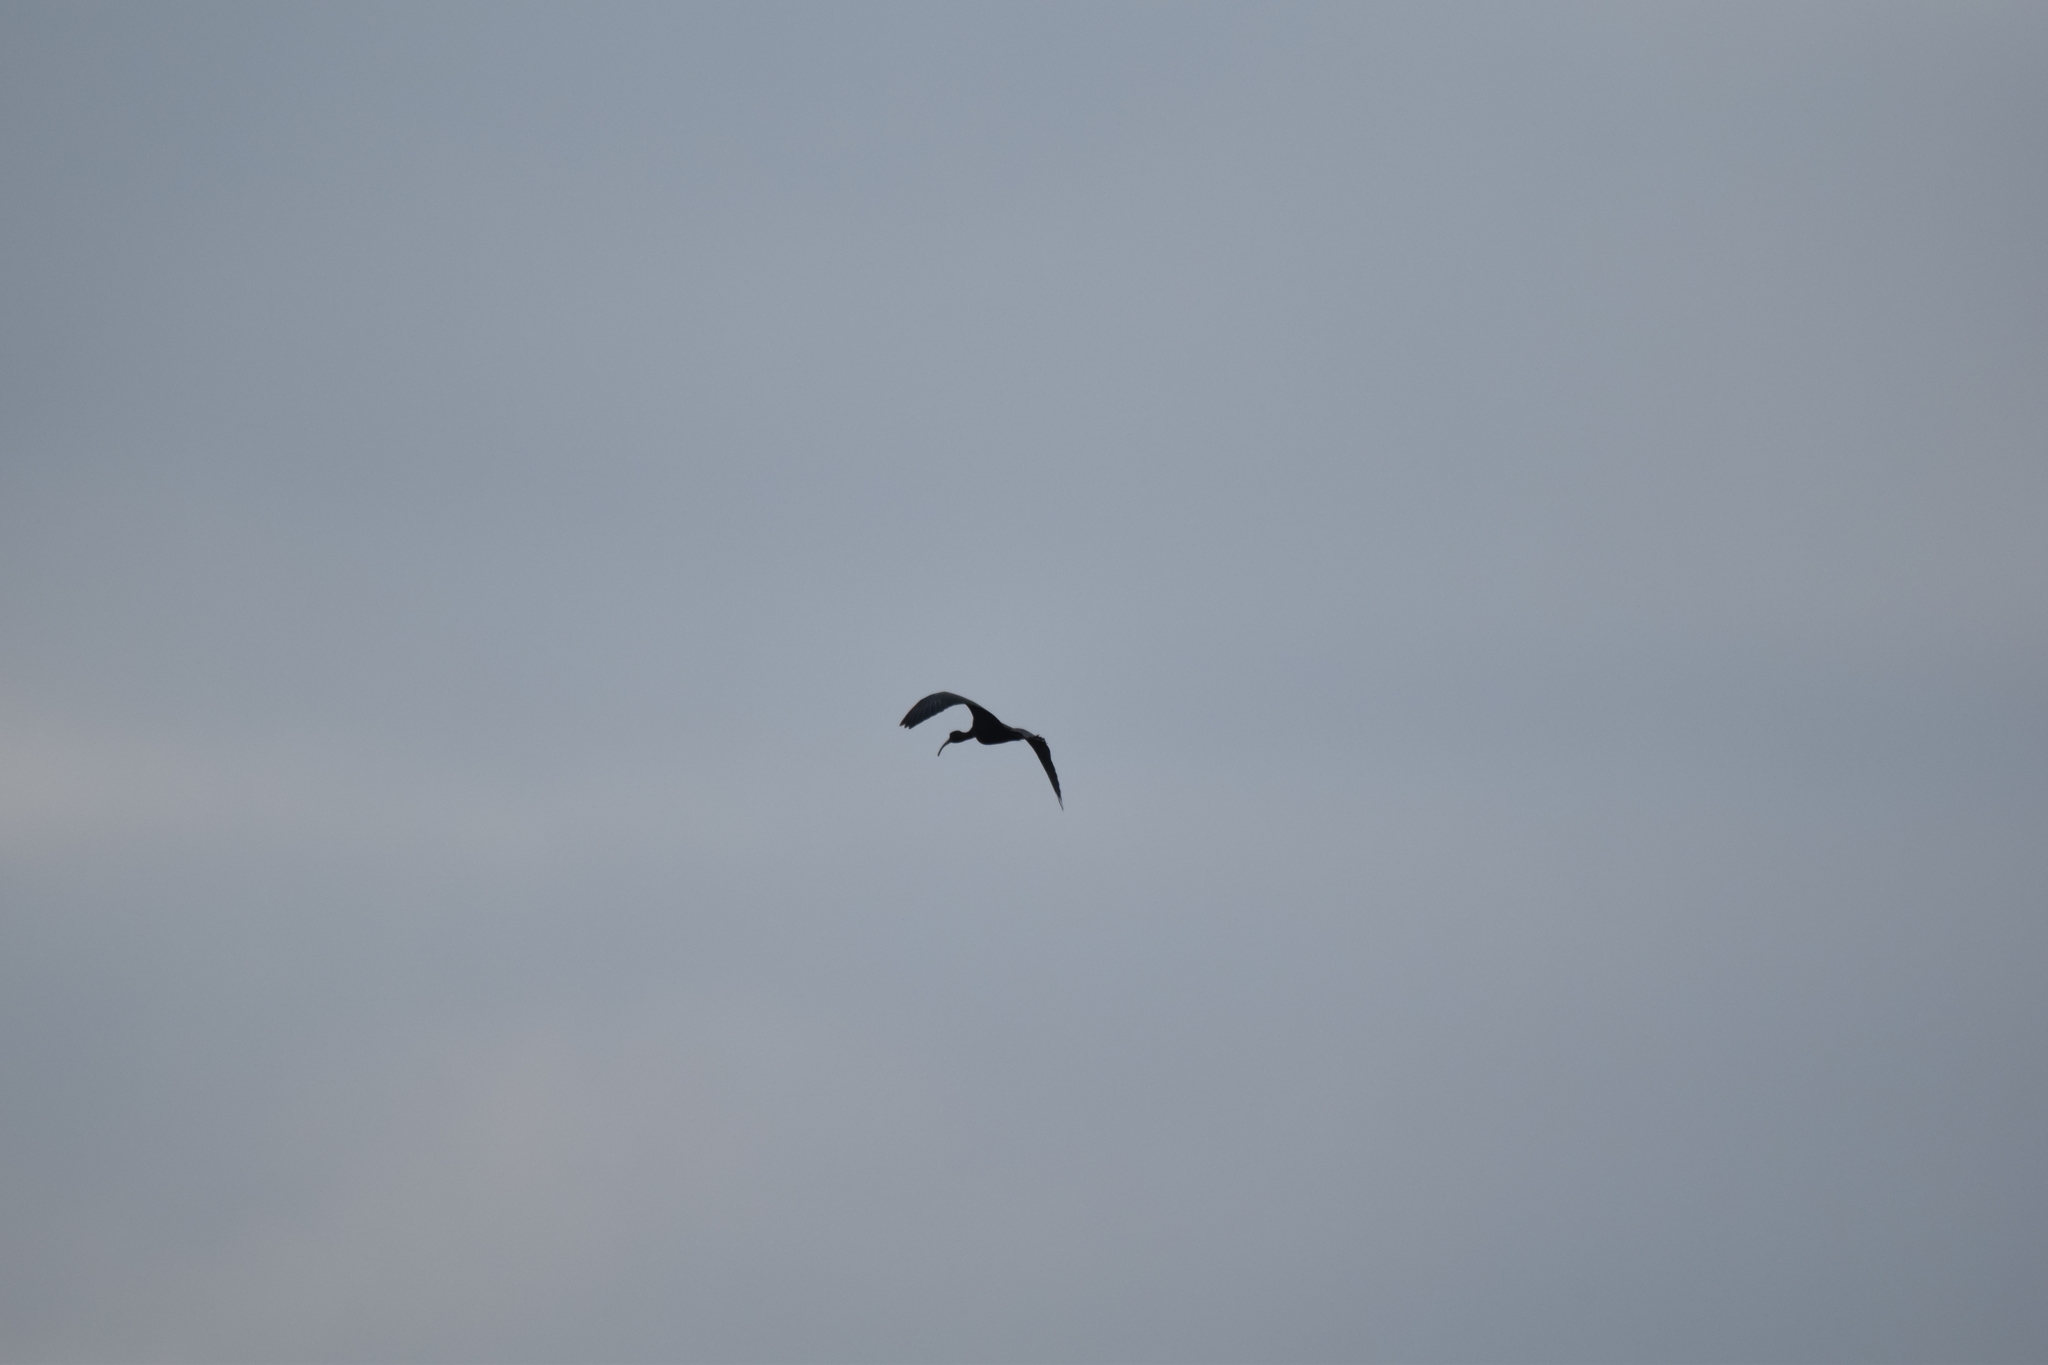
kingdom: Animalia
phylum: Chordata
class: Aves
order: Pelecaniformes
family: Threskiornithidae
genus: Plegadis
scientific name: Plegadis falcinellus
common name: Glossy ibis
